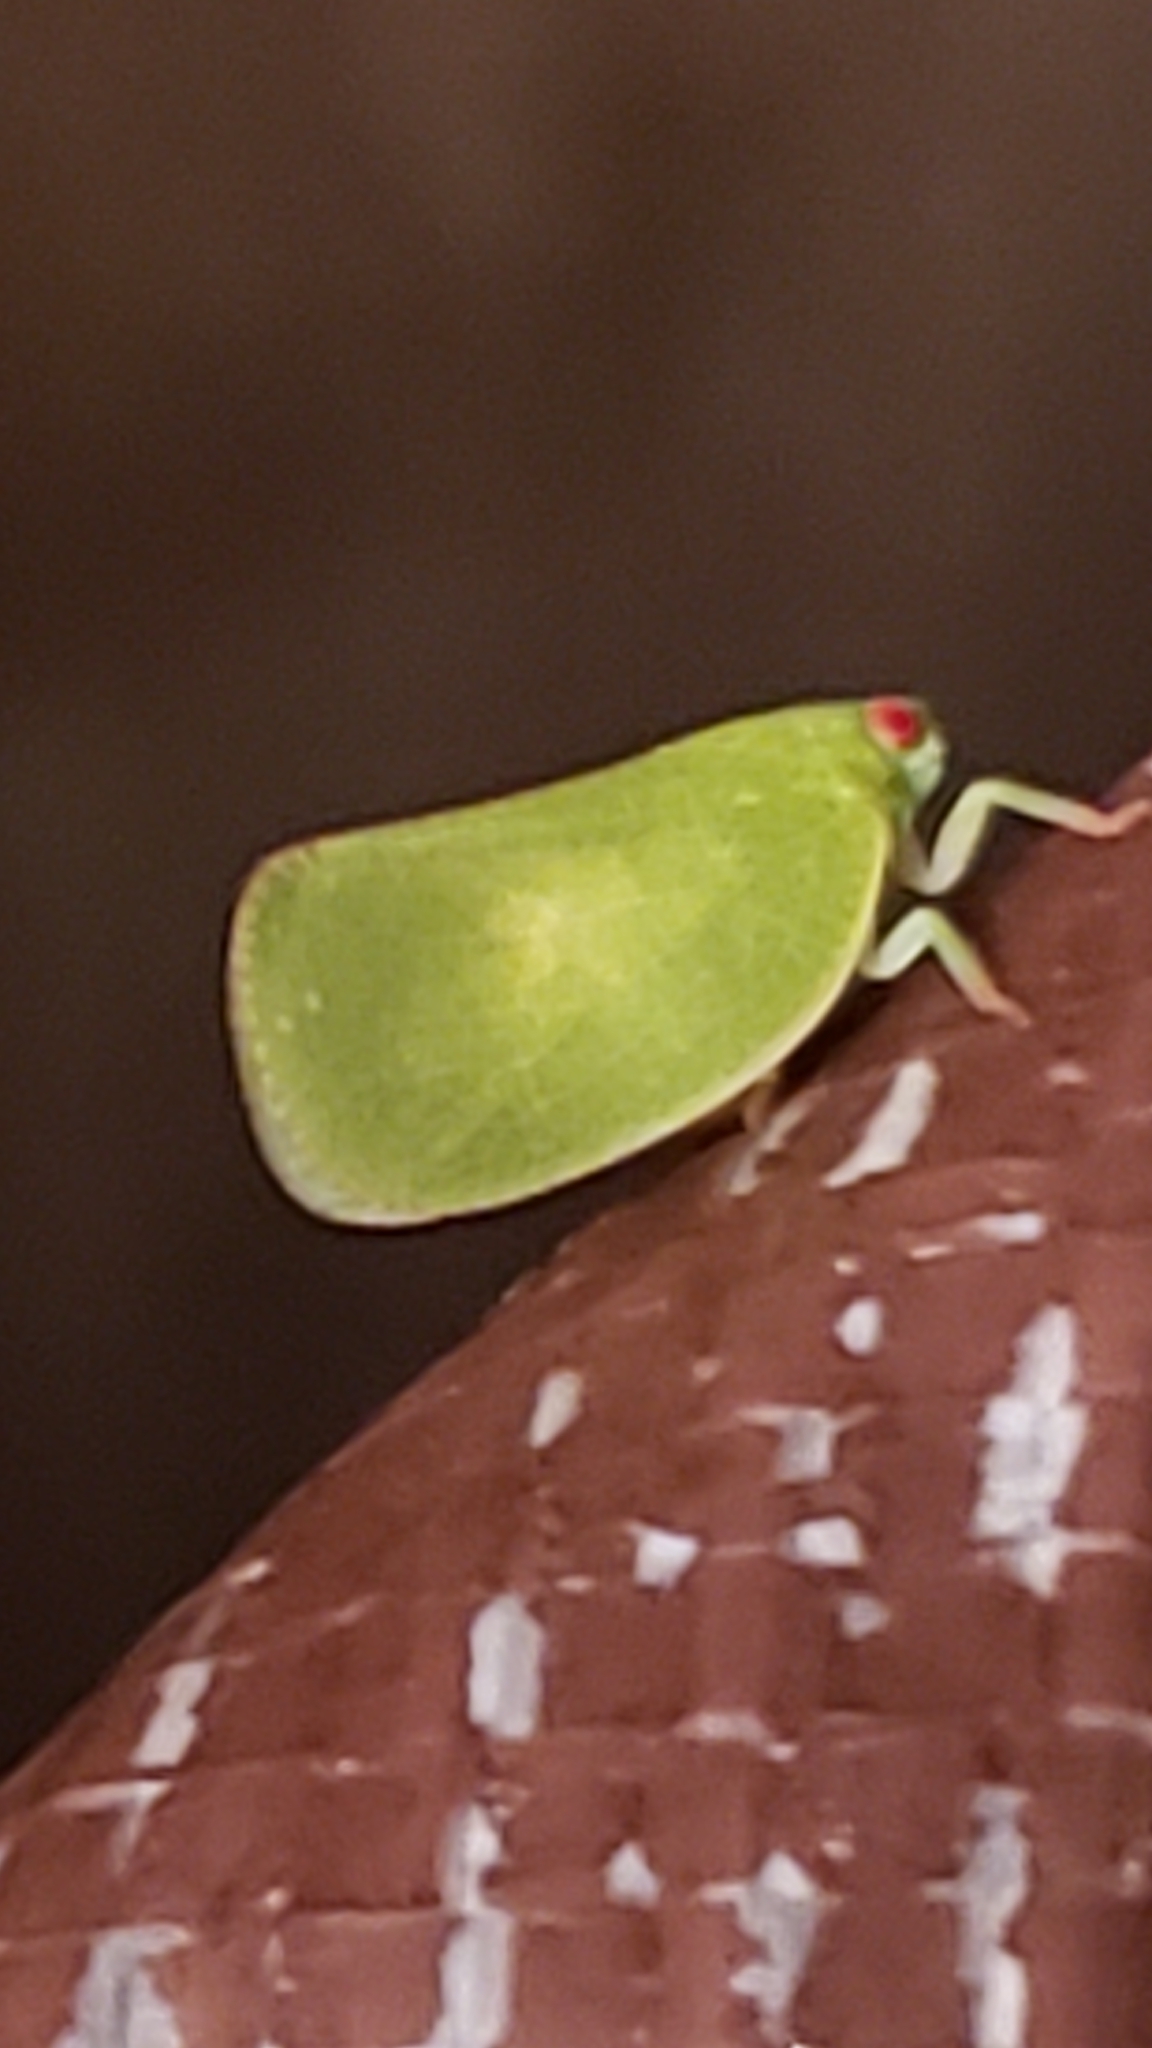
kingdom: Animalia
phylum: Arthropoda
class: Insecta
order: Hemiptera
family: Acanaloniidae
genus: Acanalonia
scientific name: Acanalonia conica
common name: Green cone-headed planthopper
